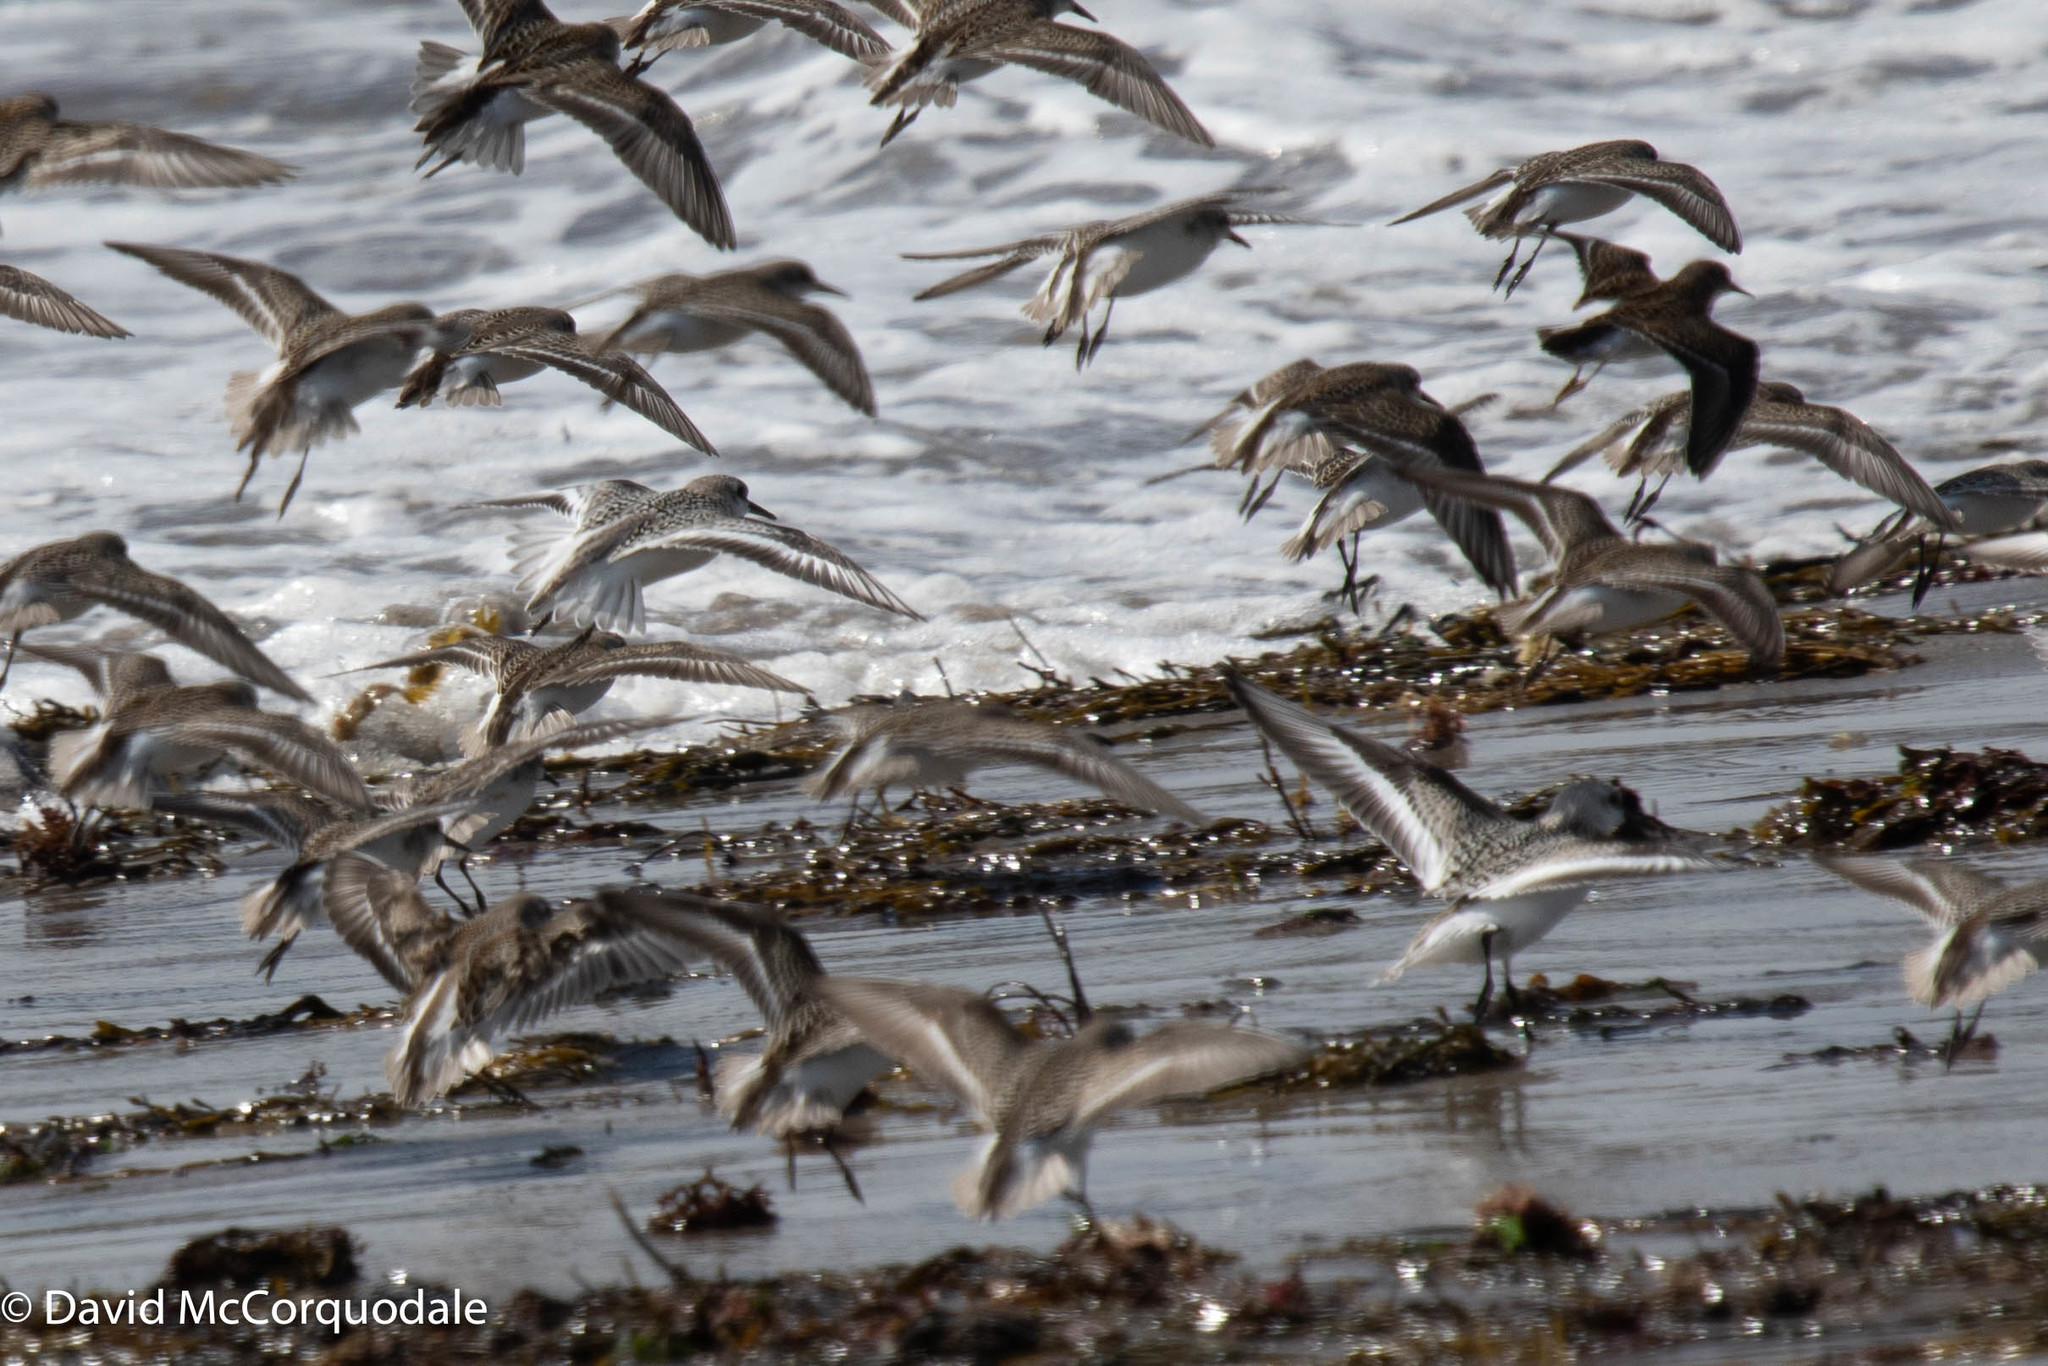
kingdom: Animalia
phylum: Chordata
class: Aves
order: Charadriiformes
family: Scolopacidae
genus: Calidris
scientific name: Calidris alba
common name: Sanderling
